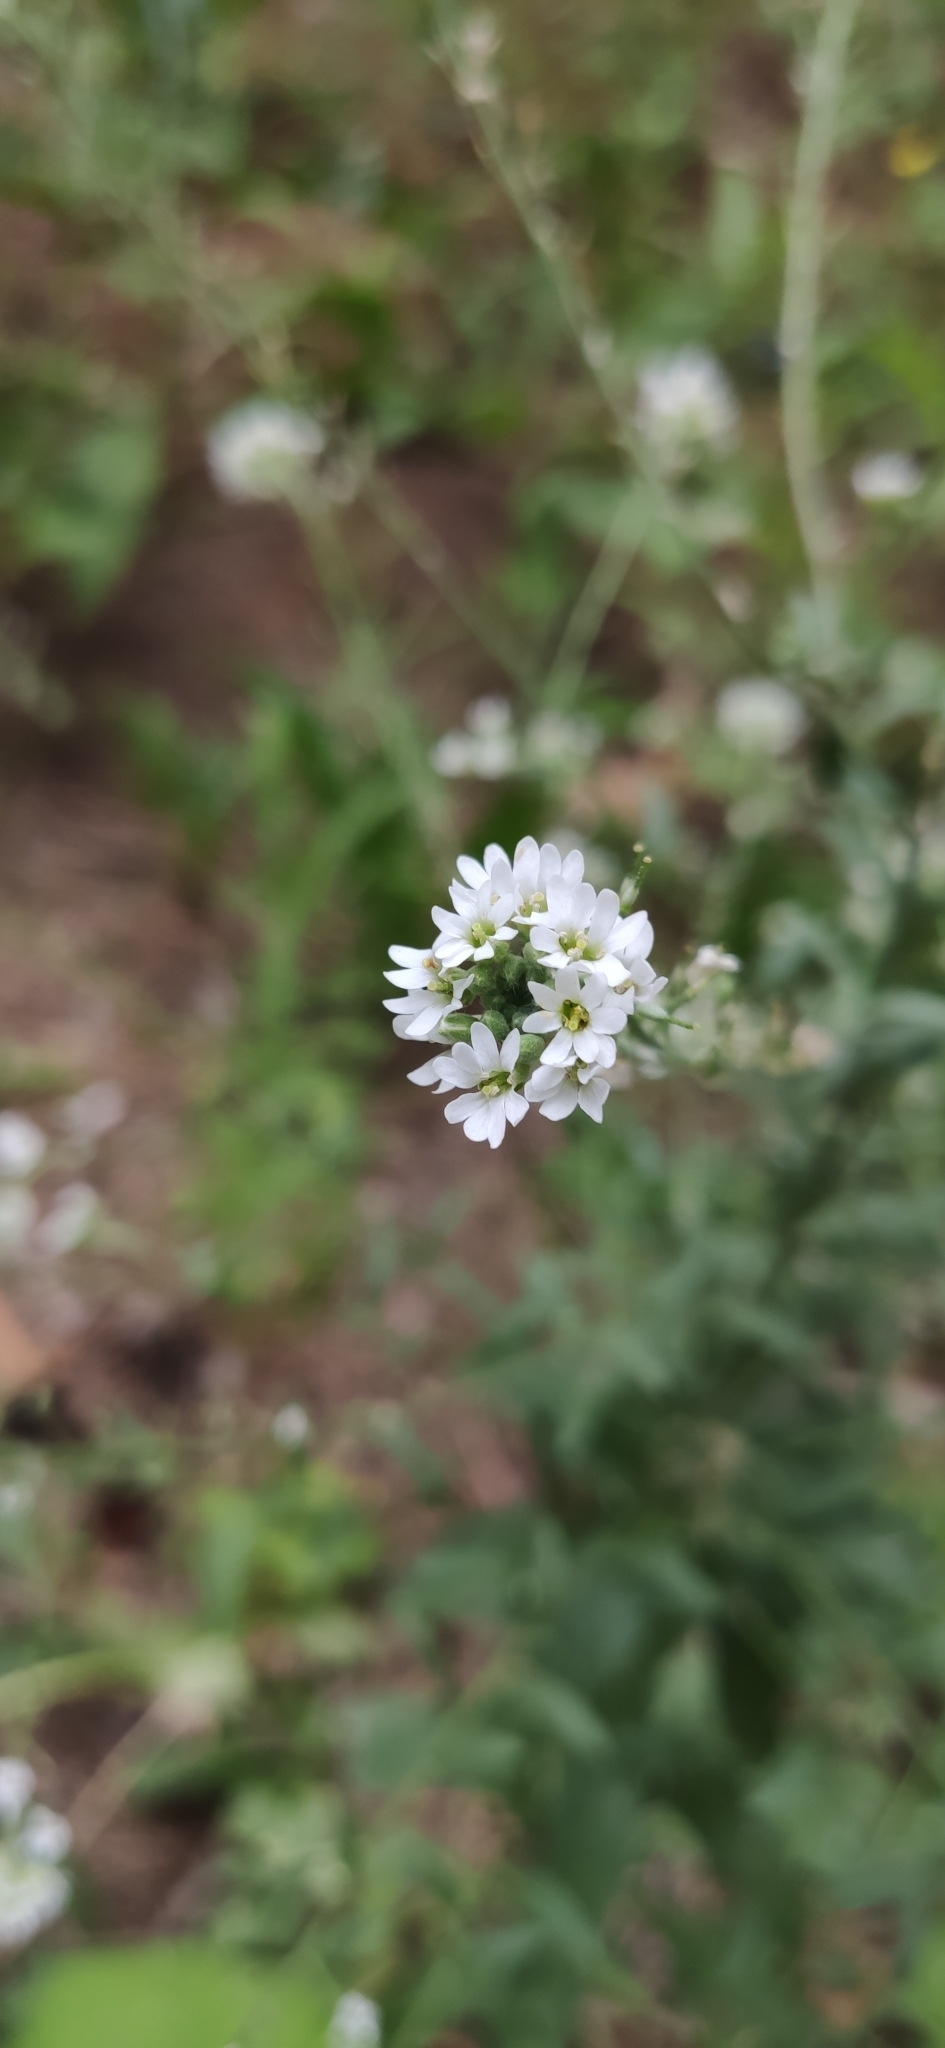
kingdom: Plantae
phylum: Tracheophyta
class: Magnoliopsida
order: Brassicales
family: Brassicaceae
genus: Berteroa
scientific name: Berteroa incana
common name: Hoary alison
